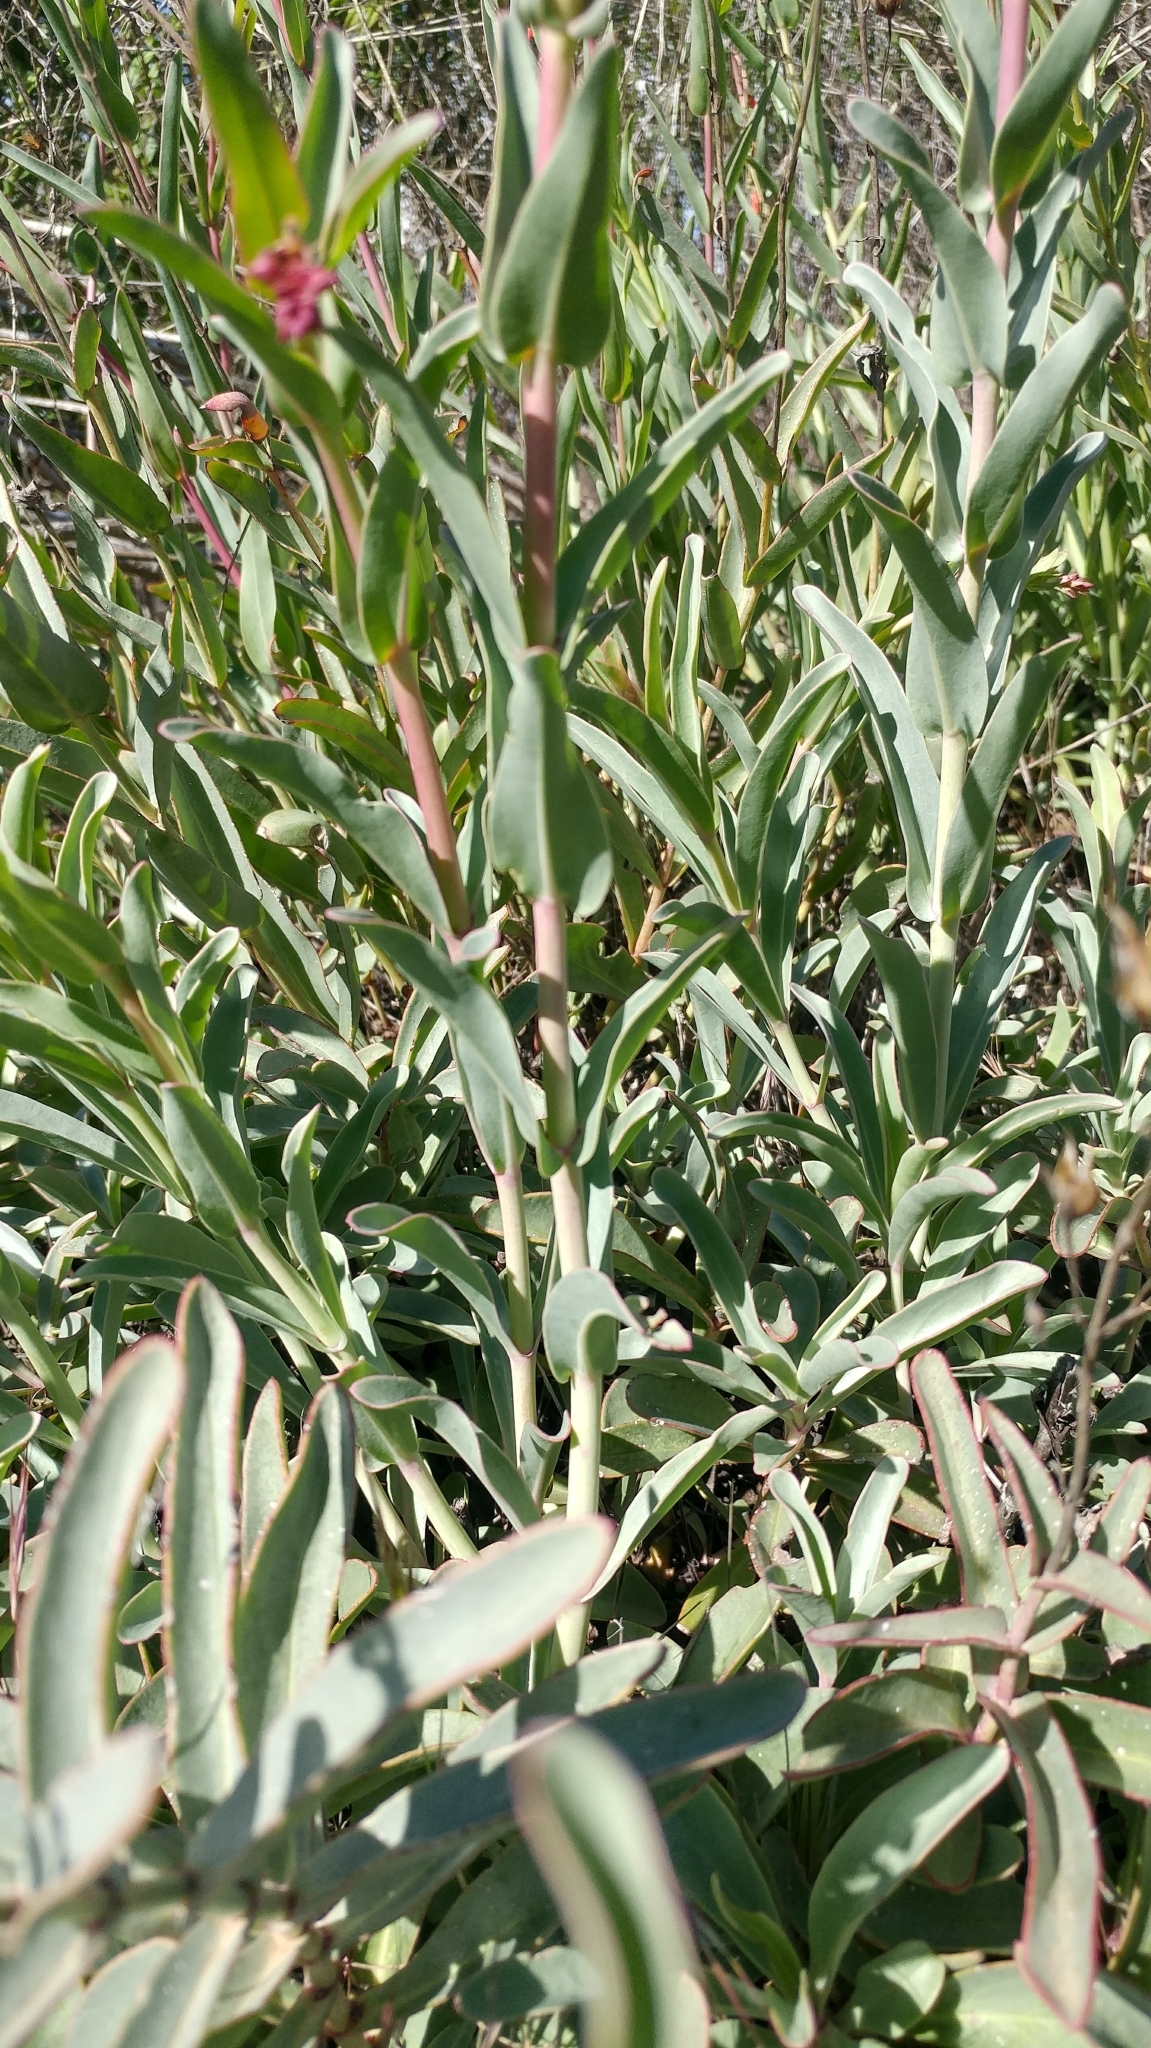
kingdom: Plantae
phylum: Tracheophyta
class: Magnoliopsida
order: Lamiales
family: Plantaginaceae
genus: Penstemon
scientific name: Penstemon centranthifolius
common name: Scarlet bugler
